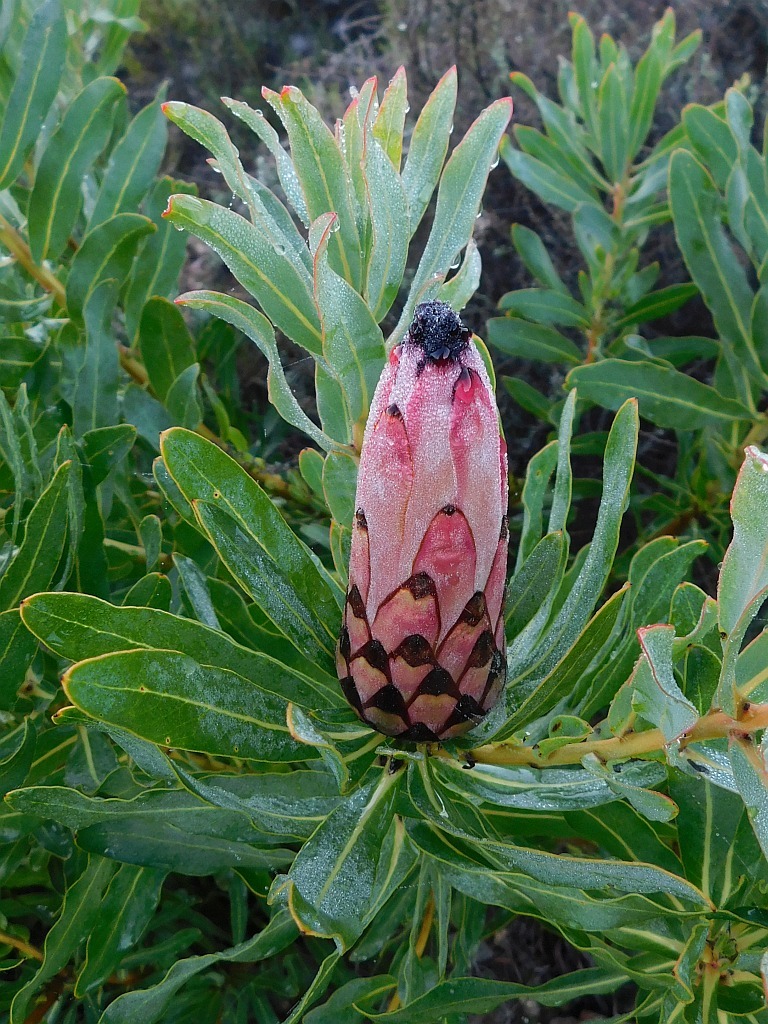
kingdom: Plantae
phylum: Tracheophyta
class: Magnoliopsida
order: Proteales
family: Proteaceae
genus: Protea
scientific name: Protea neriifolia
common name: Blue sugarbush
